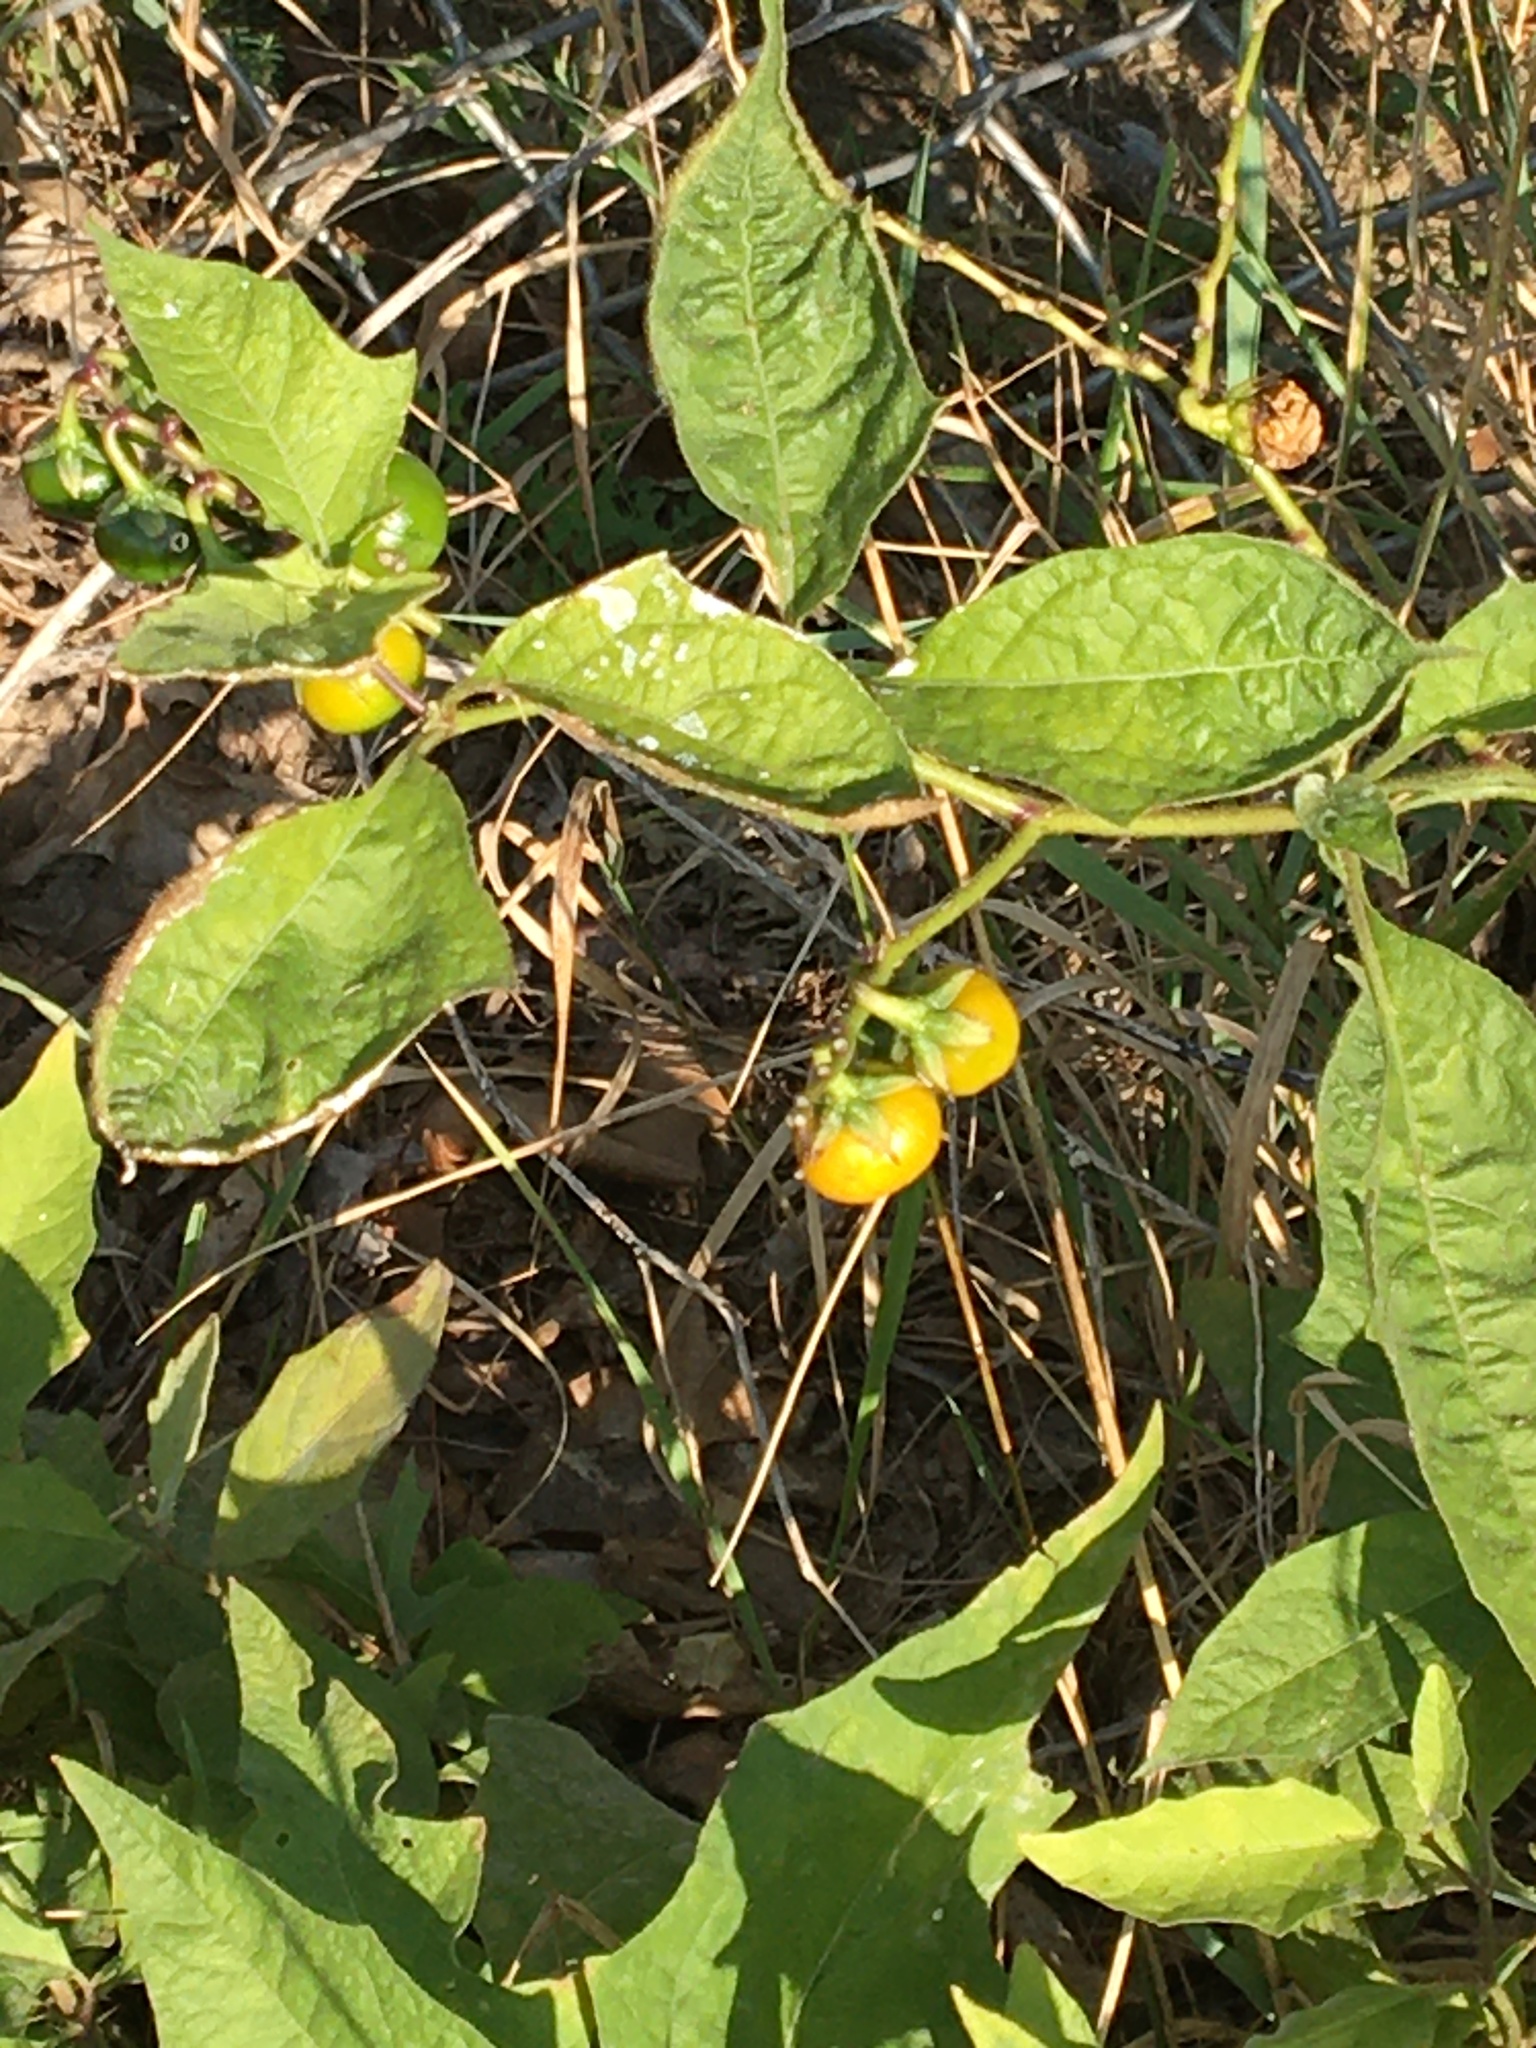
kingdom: Plantae
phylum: Tracheophyta
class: Magnoliopsida
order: Solanales
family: Solanaceae
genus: Solanum
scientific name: Solanum carolinense
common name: Horse-nettle
